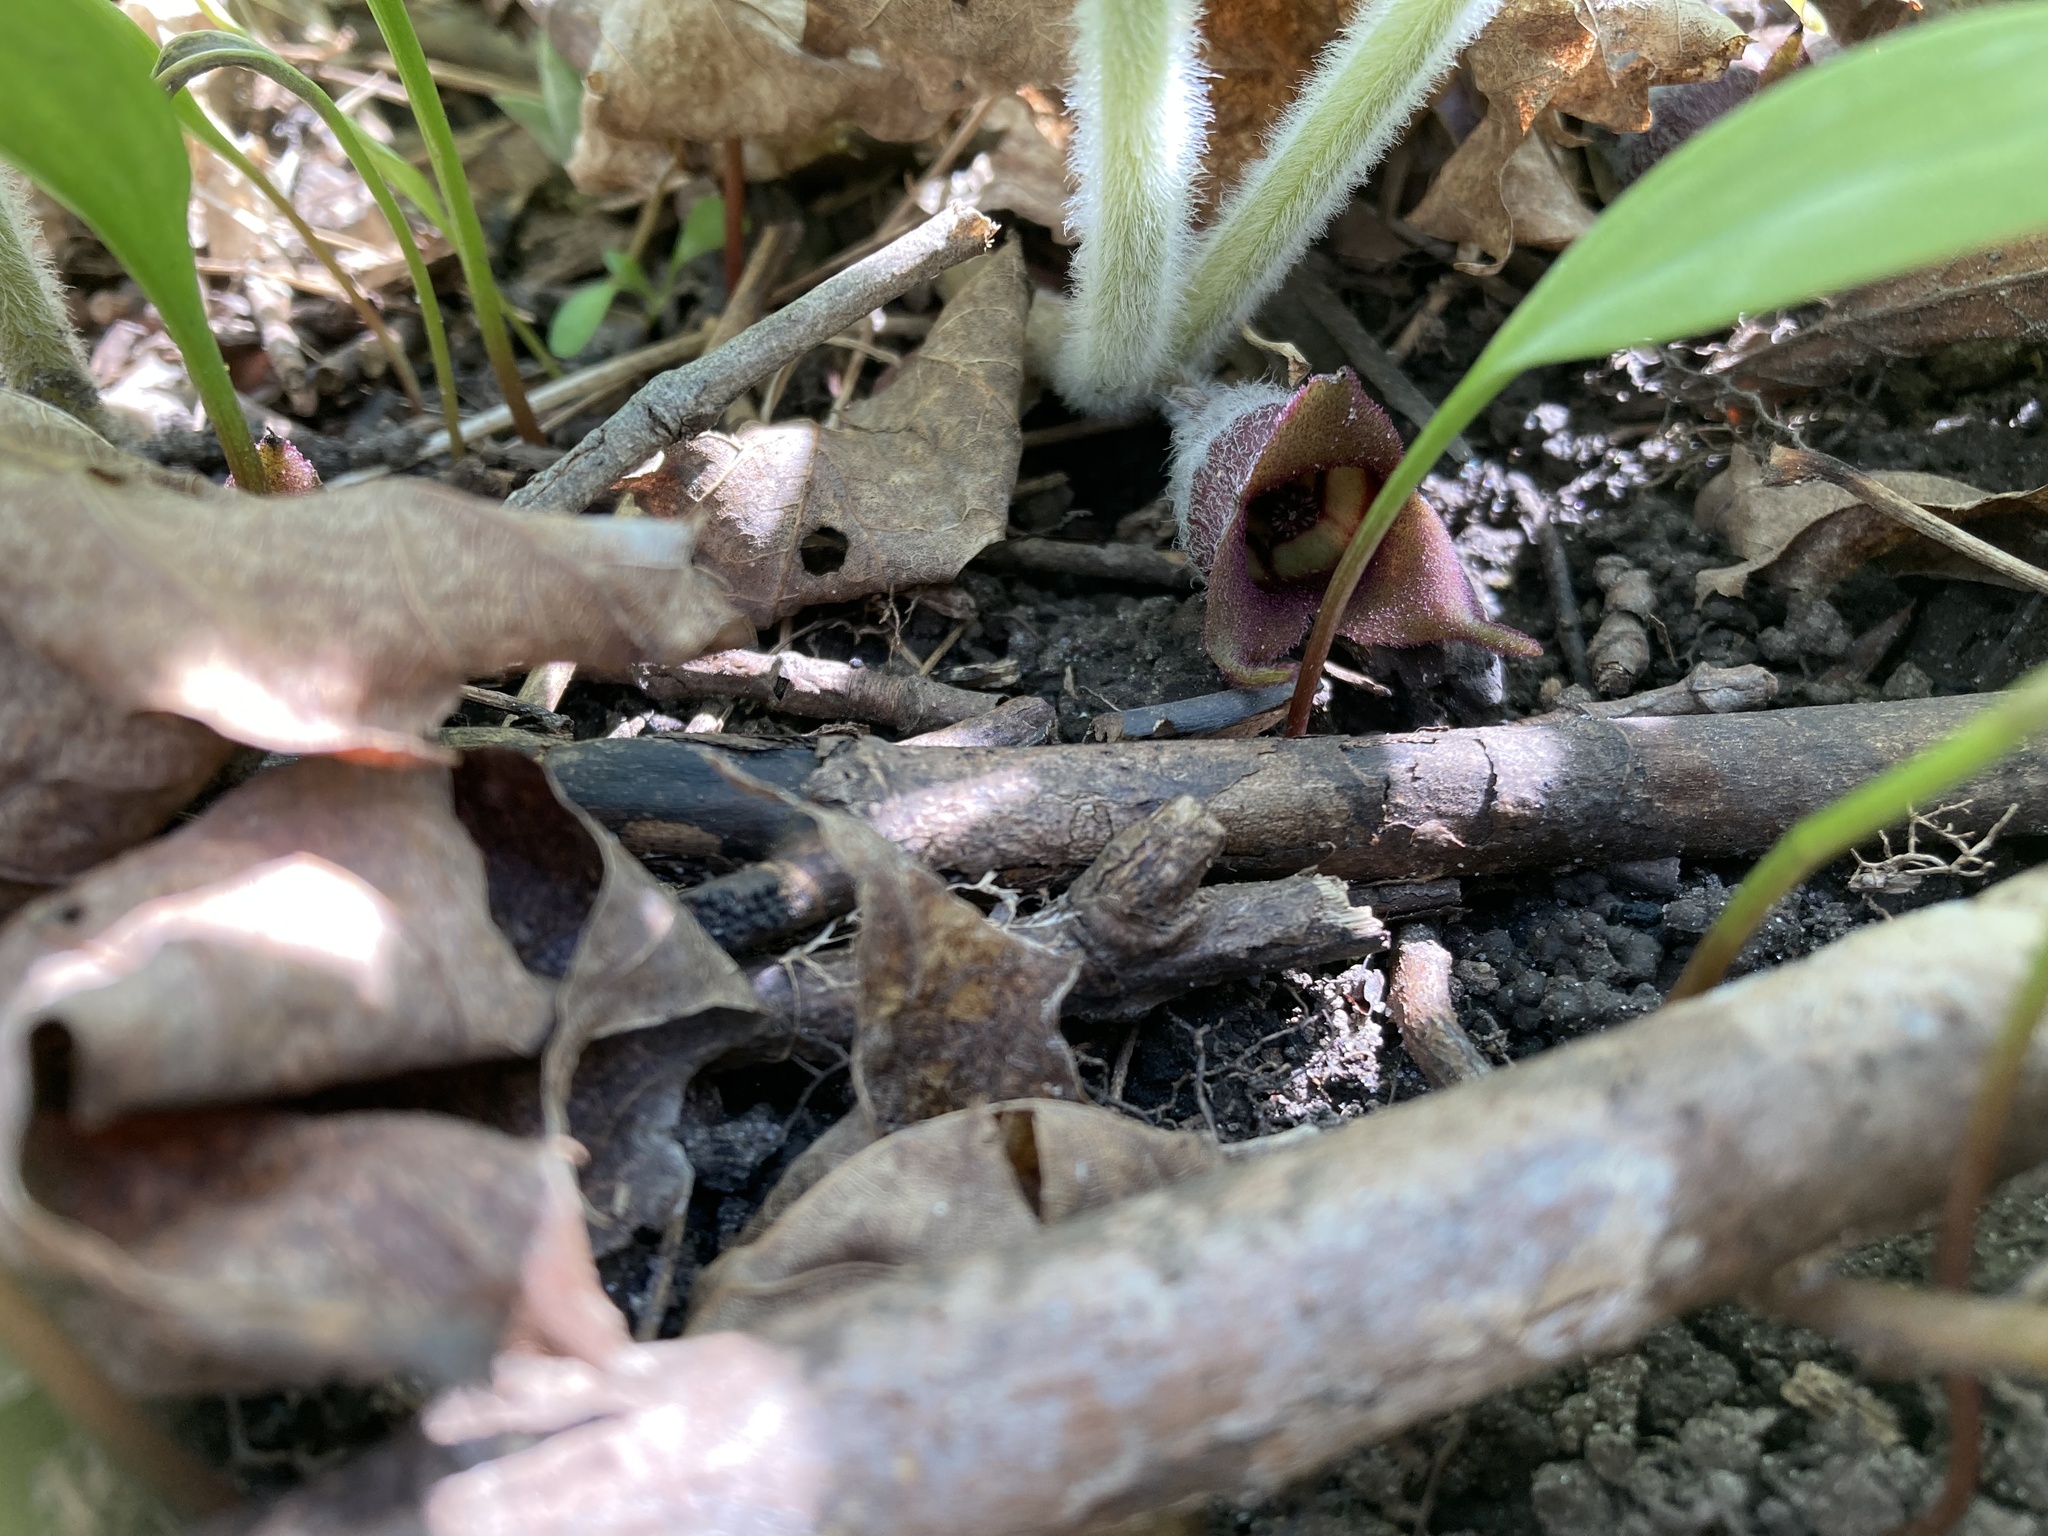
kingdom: Plantae
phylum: Tracheophyta
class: Magnoliopsida
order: Piperales
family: Aristolochiaceae
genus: Asarum
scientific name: Asarum canadense
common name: Wild ginger
